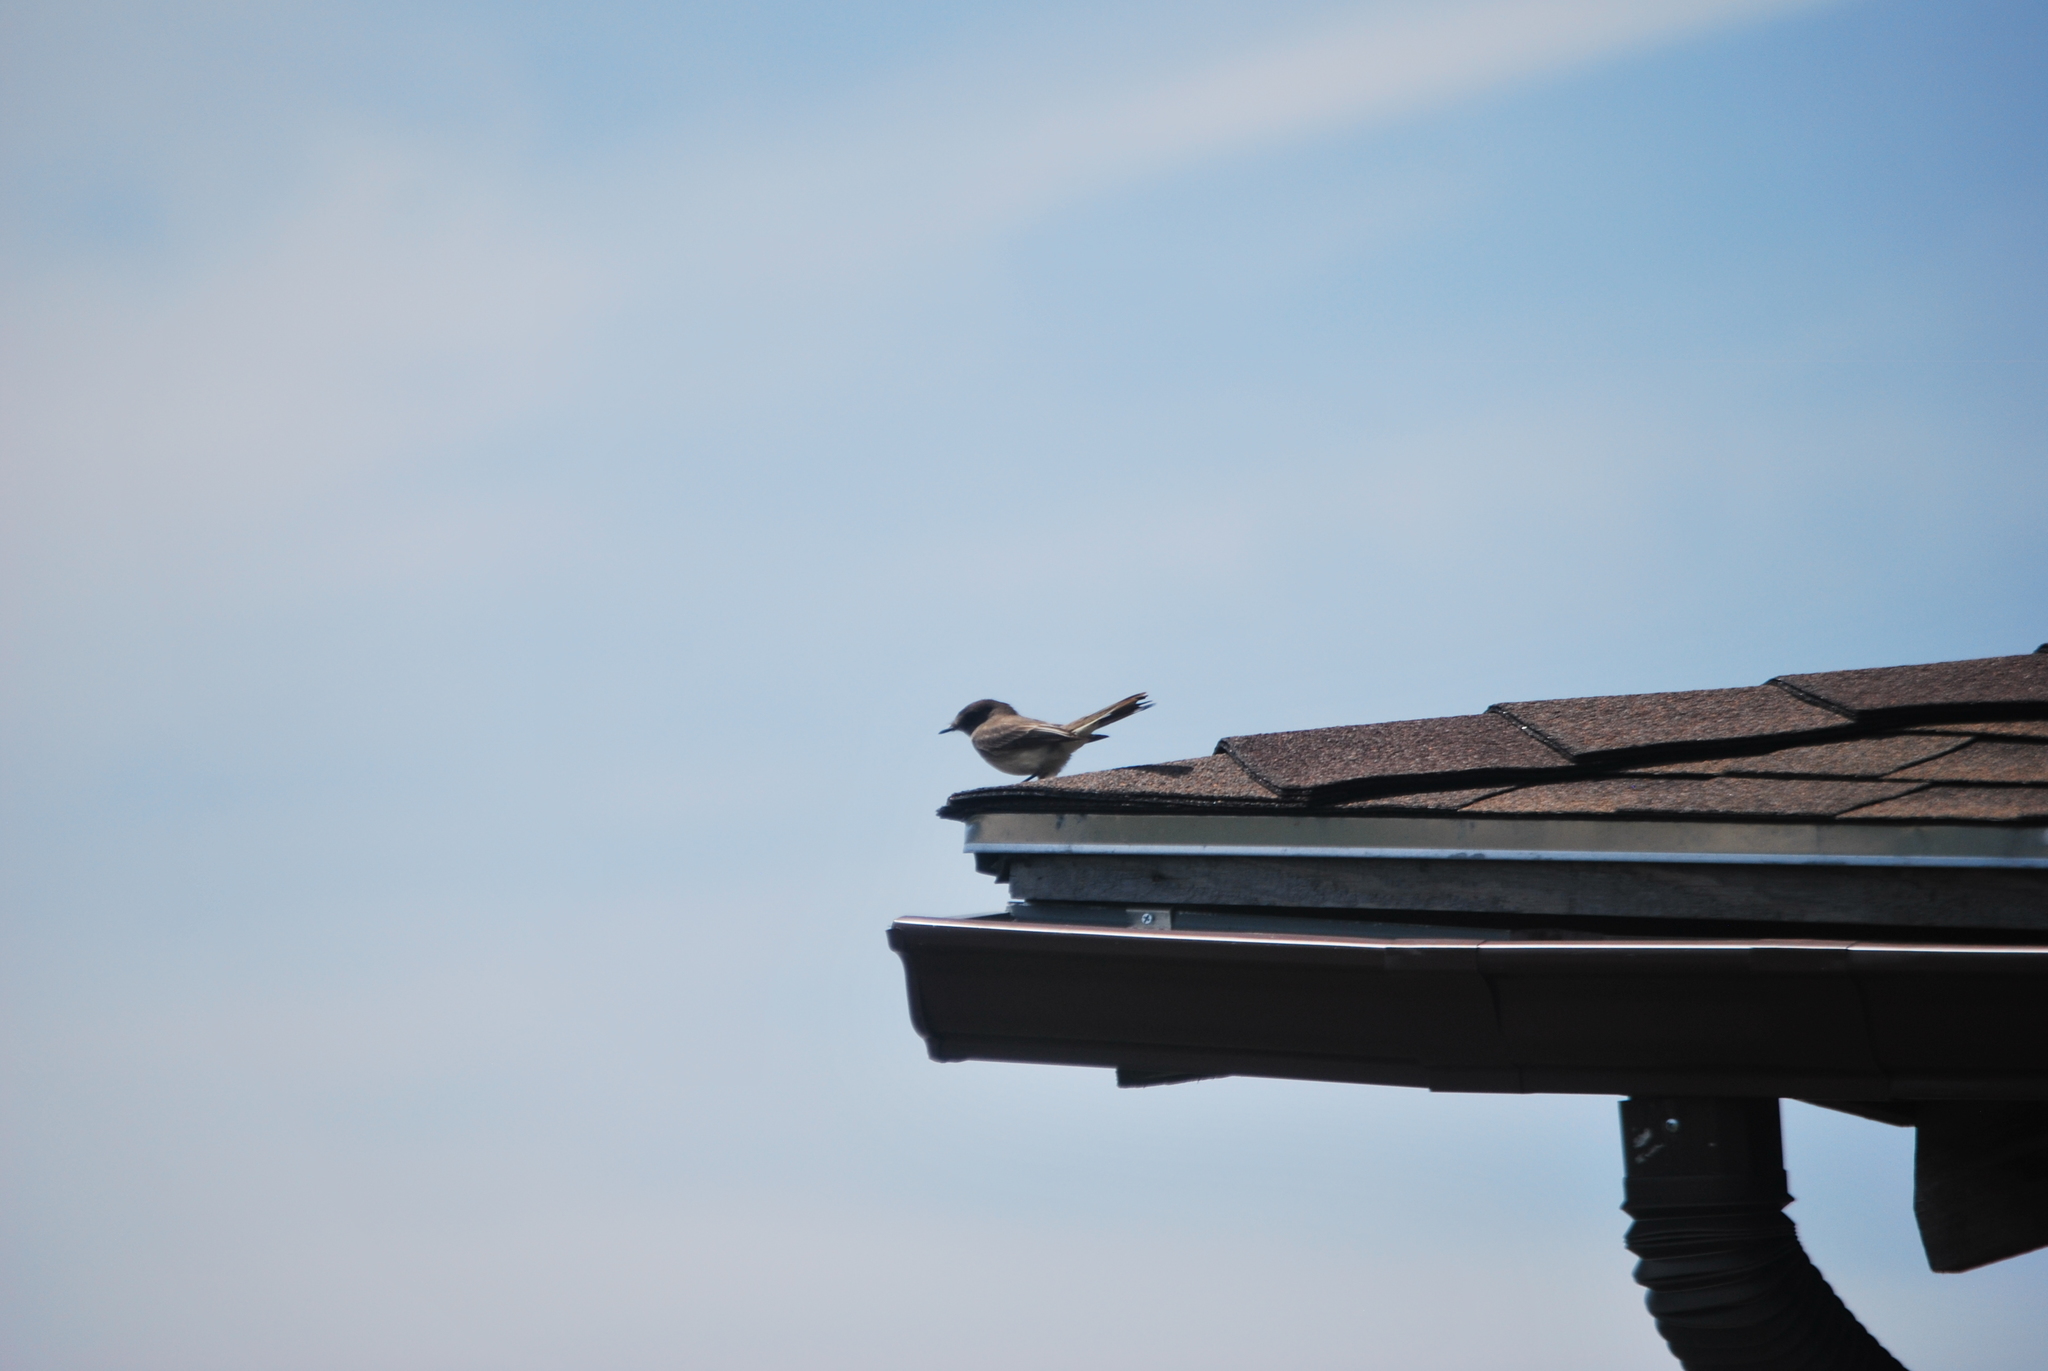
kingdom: Animalia
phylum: Chordata
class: Aves
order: Passeriformes
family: Tyrannidae
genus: Sayornis
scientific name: Sayornis phoebe
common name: Eastern phoebe
